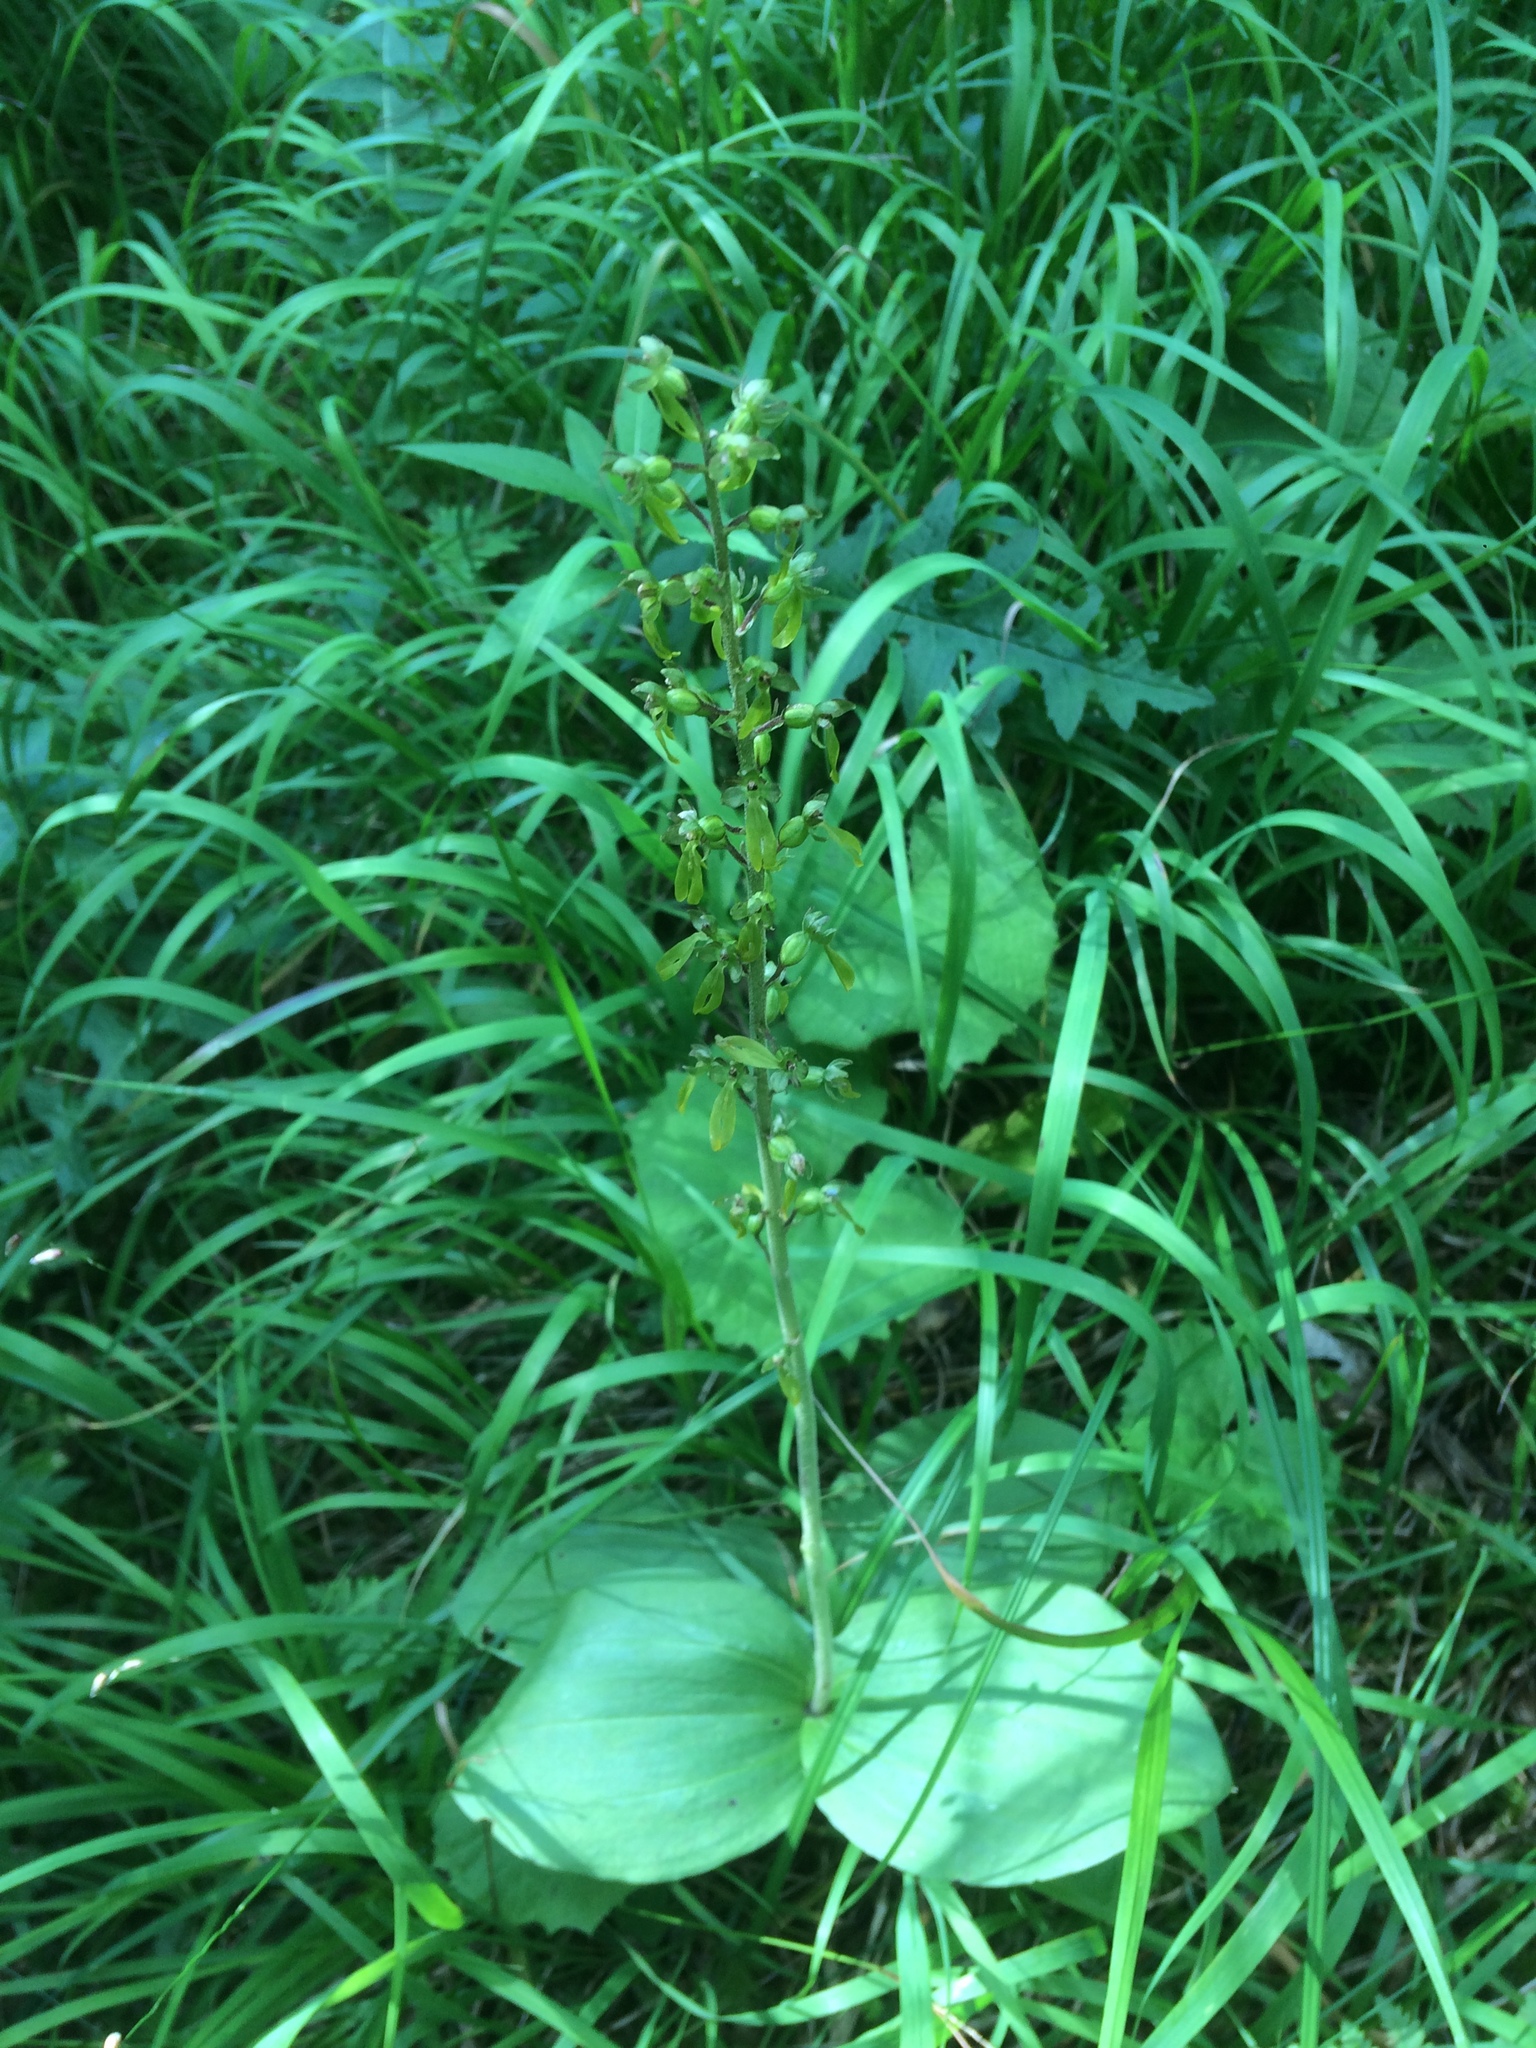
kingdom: Plantae
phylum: Tracheophyta
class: Liliopsida
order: Asparagales
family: Orchidaceae
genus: Neottia
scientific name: Neottia ovata
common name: Common twayblade
